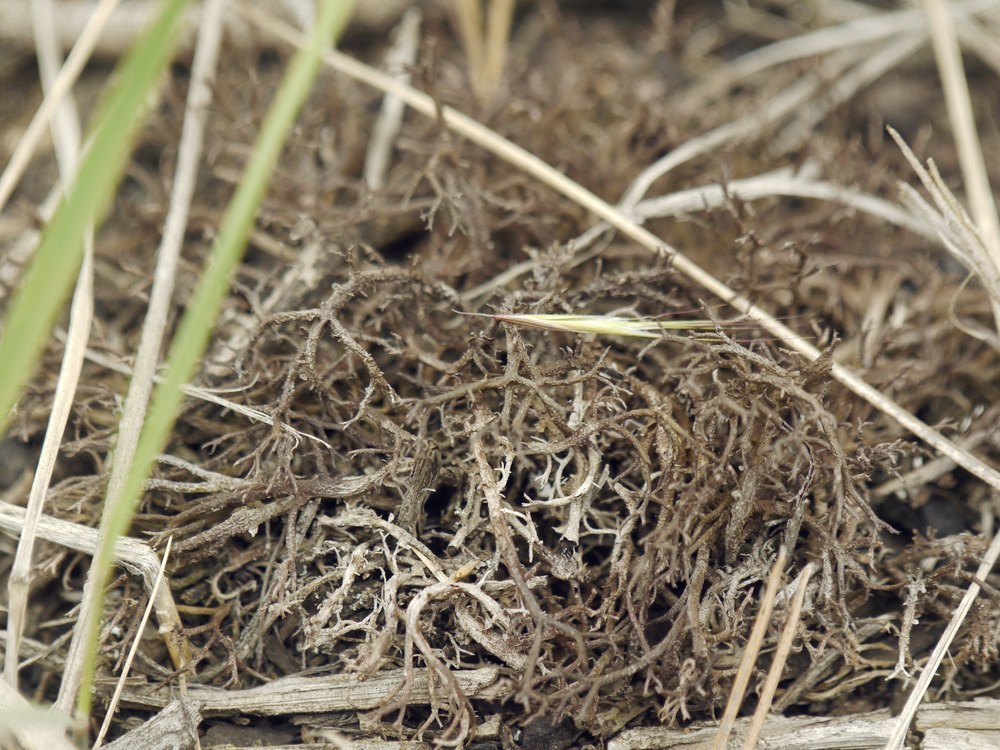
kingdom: Fungi
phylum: Ascomycota
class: Lecanoromycetes
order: Lecanorales
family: Cladoniaceae
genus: Cladonia
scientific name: Cladonia furcata
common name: Many-forked cladonia
